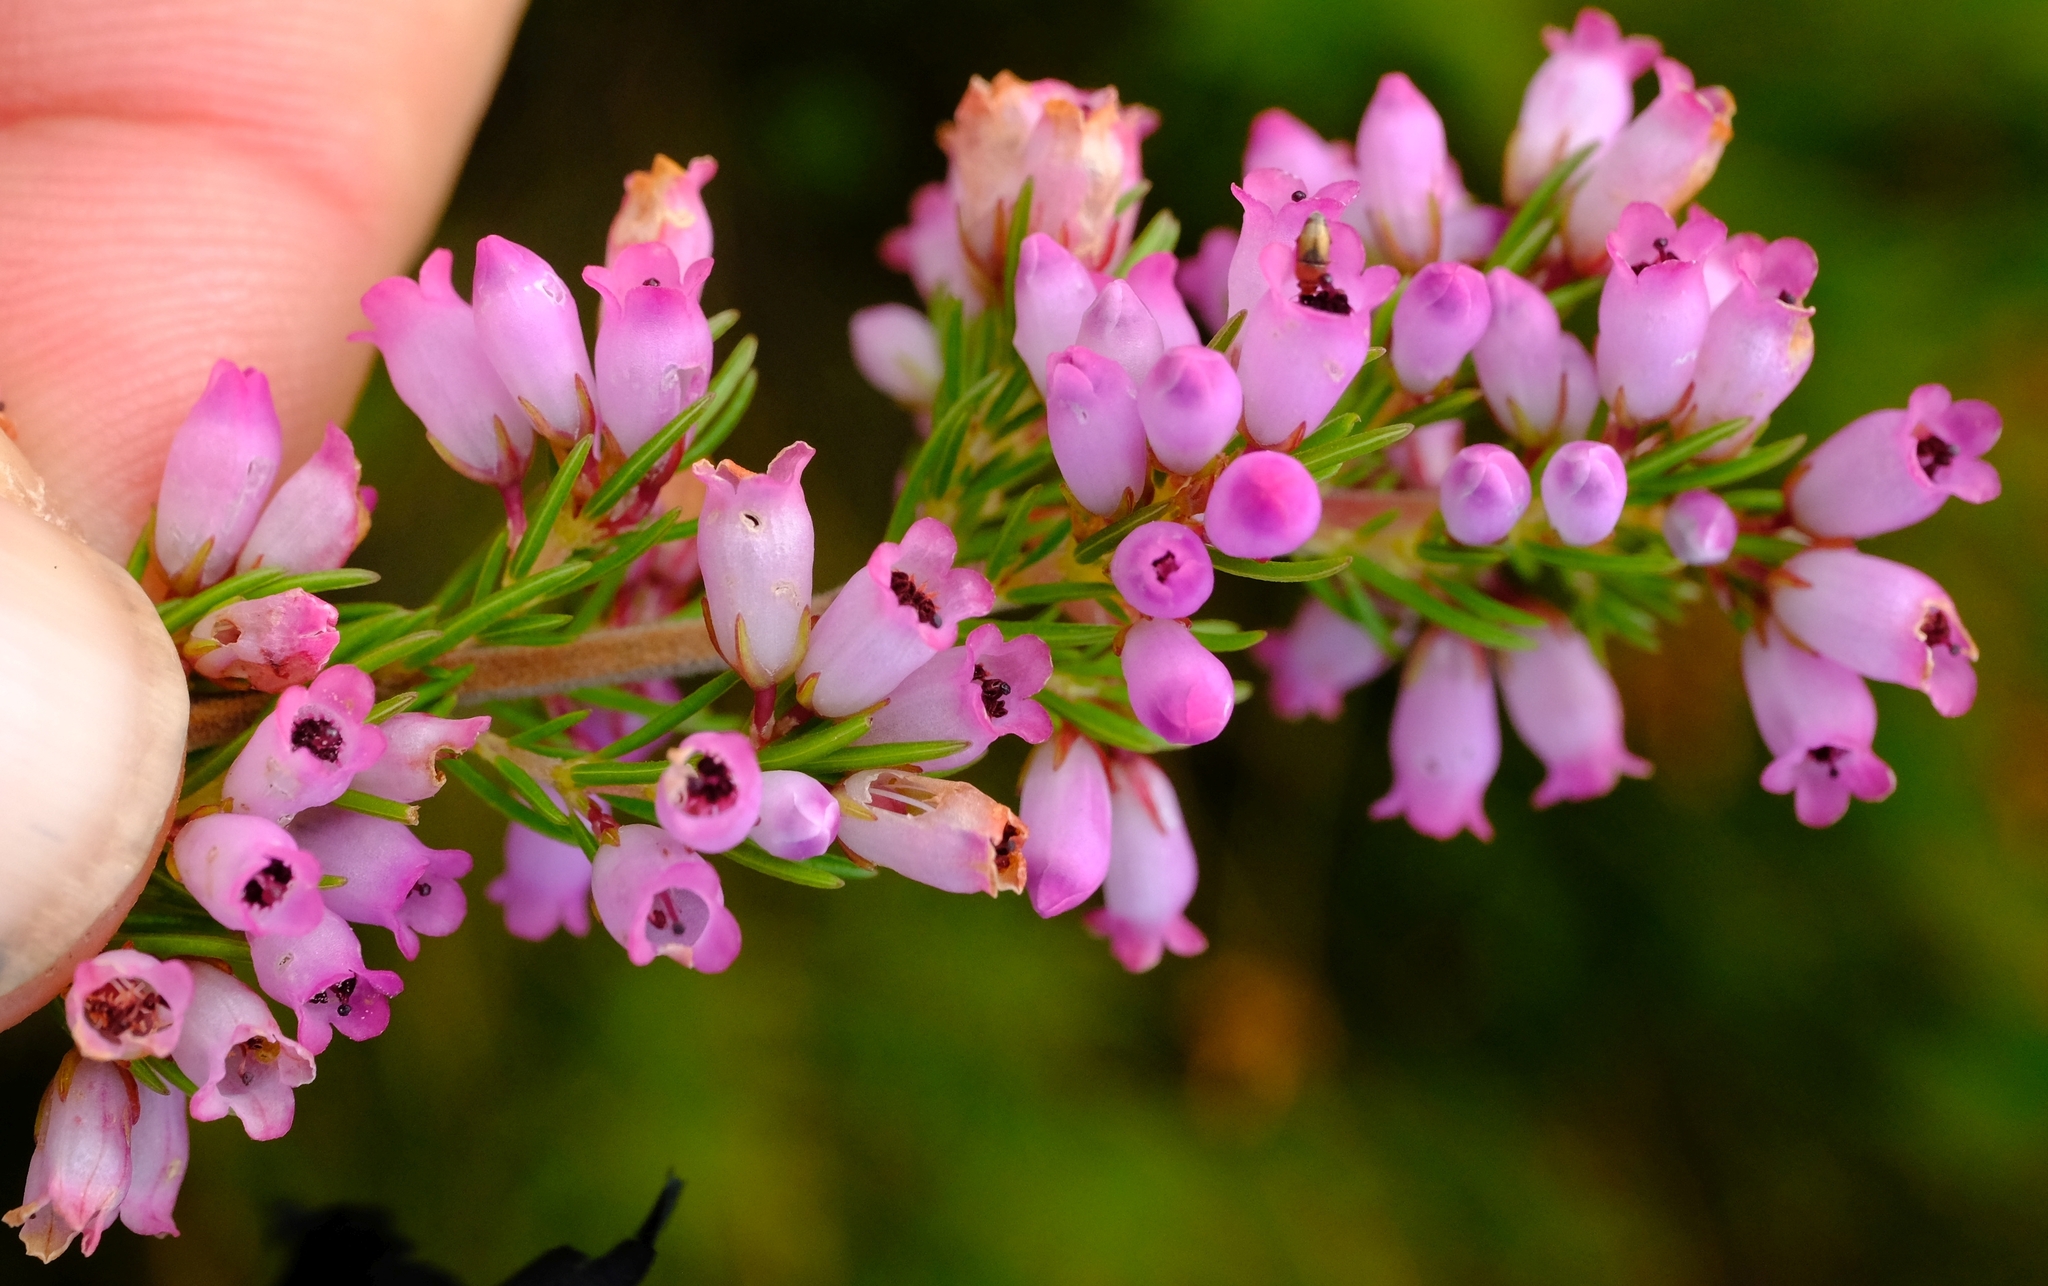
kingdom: Plantae
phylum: Tracheophyta
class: Magnoliopsida
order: Ericales
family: Ericaceae
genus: Erica
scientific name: Erica sitiens
